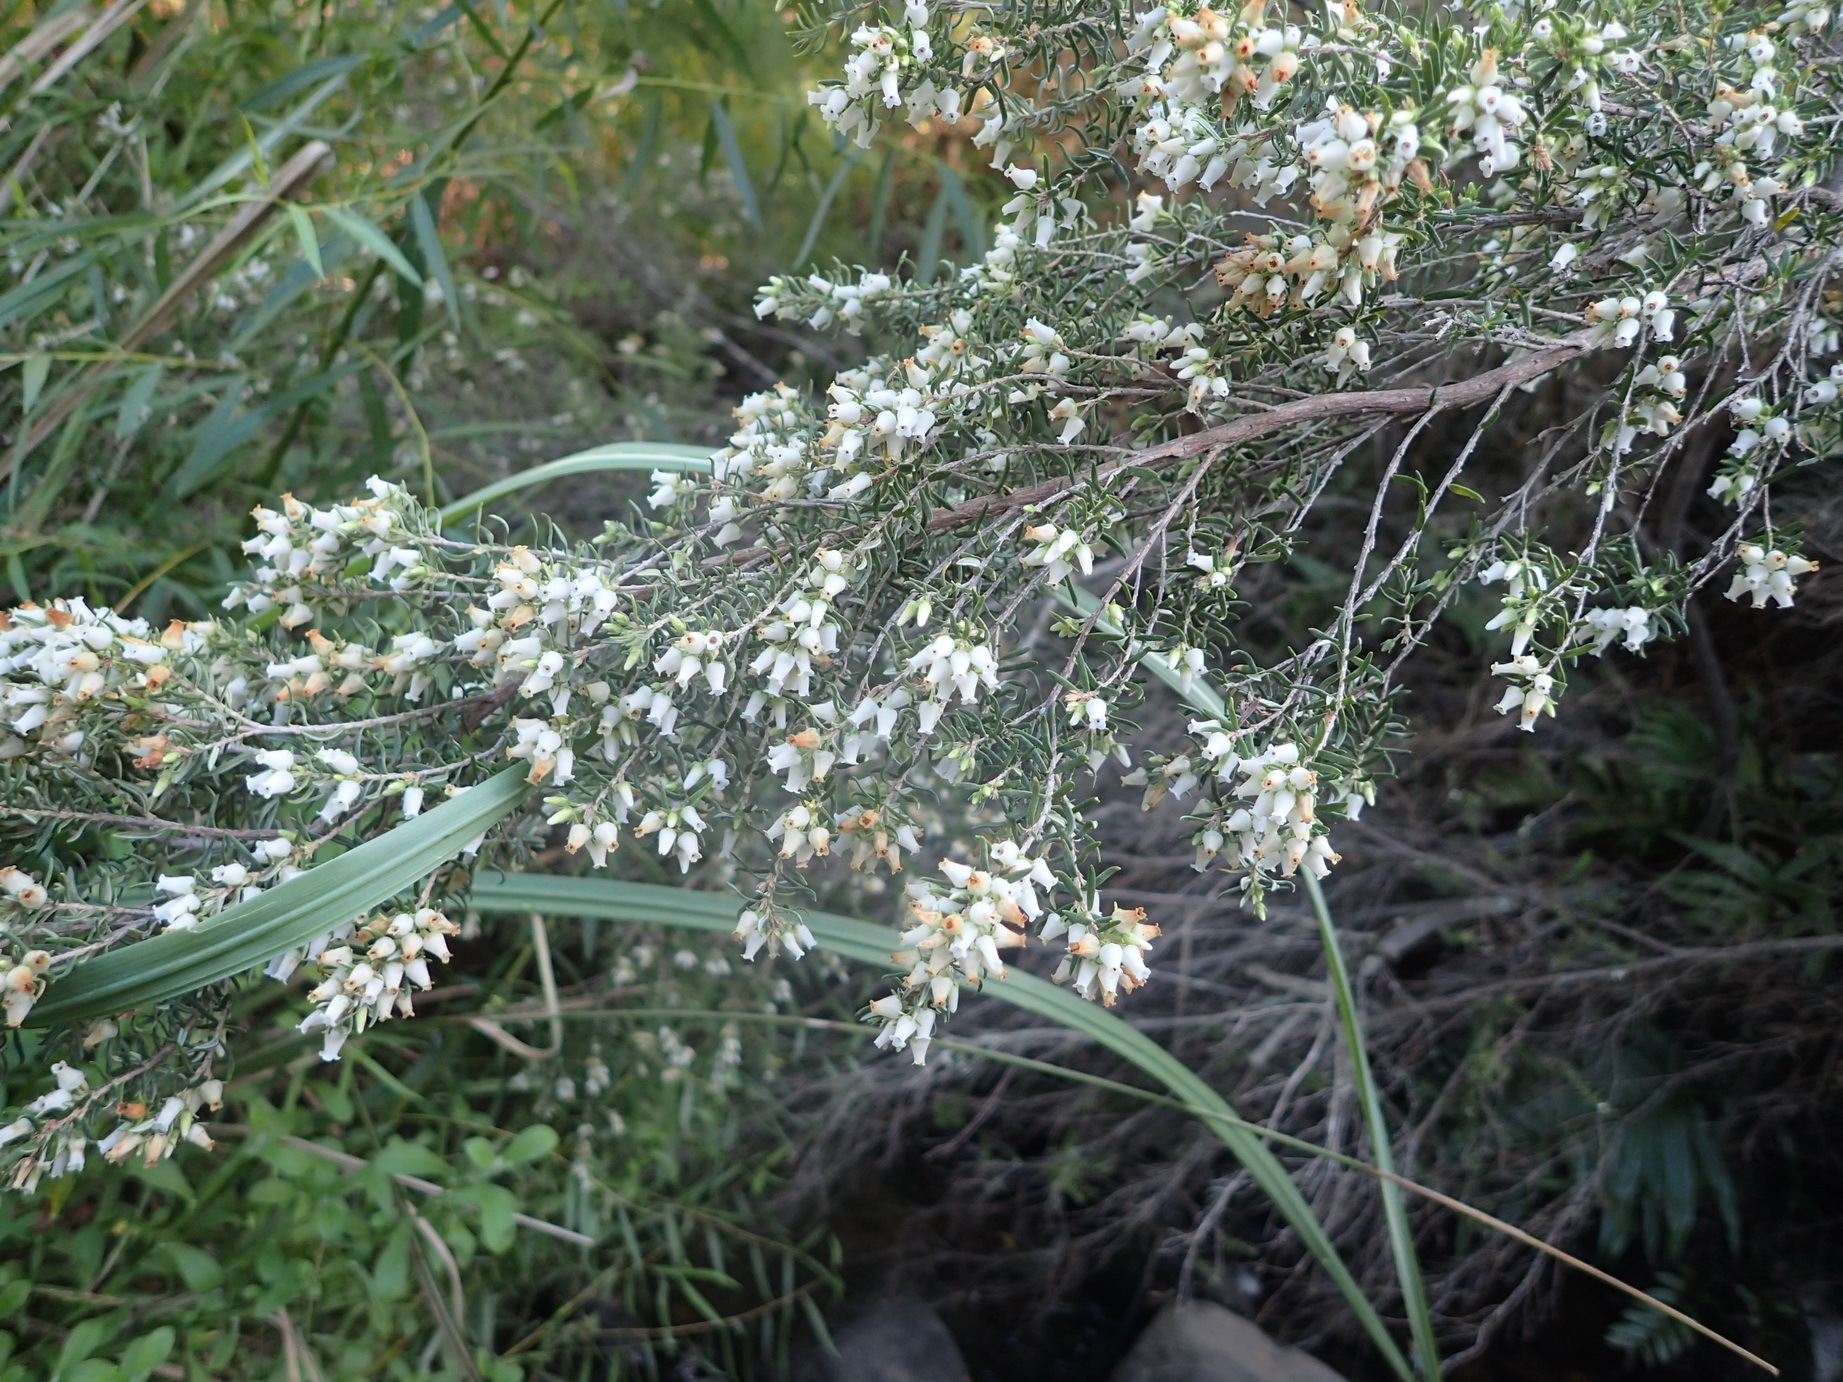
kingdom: Plantae
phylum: Tracheophyta
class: Magnoliopsida
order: Ericales
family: Ericaceae
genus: Erica
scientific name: Erica caffra
